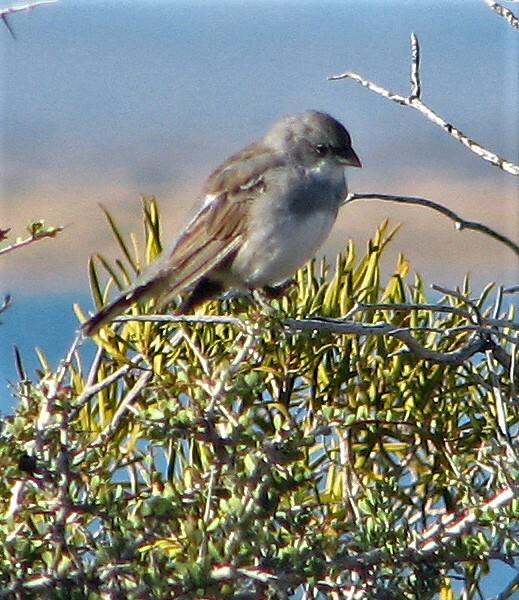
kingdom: Animalia
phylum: Chordata
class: Aves
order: Passeriformes
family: Thraupidae
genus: Diuca
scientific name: Diuca diuca
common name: Common diuca finch
